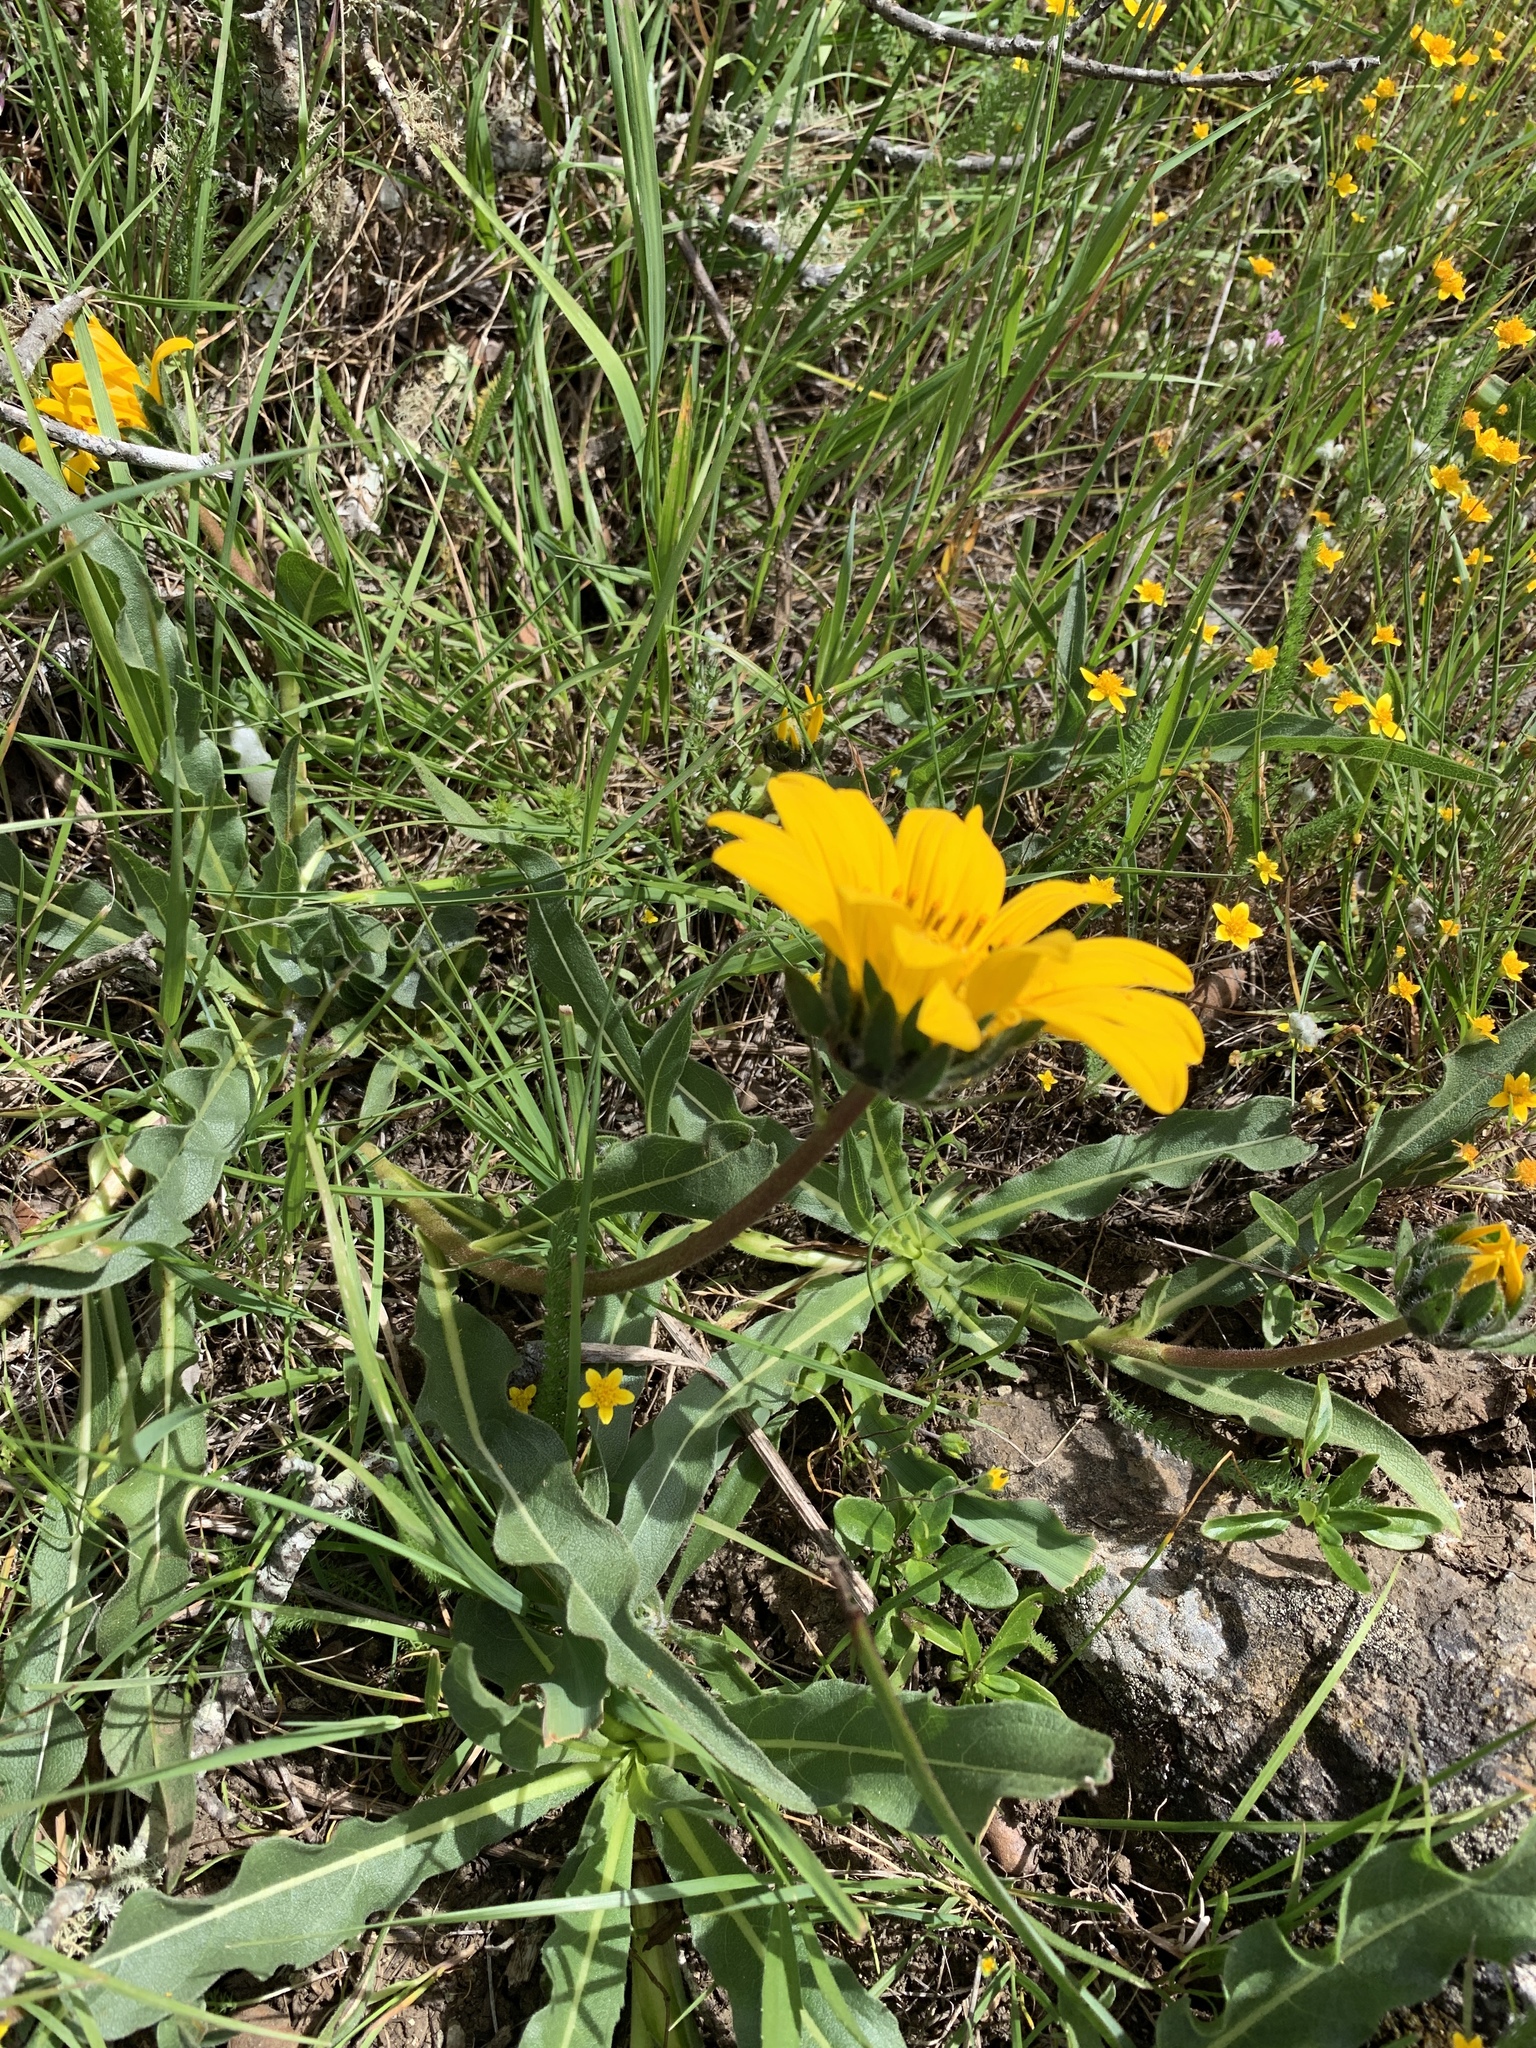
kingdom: Plantae
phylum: Tracheophyta
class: Magnoliopsida
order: Asterales
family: Asteraceae
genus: Wyethia
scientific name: Wyethia angustifolia
